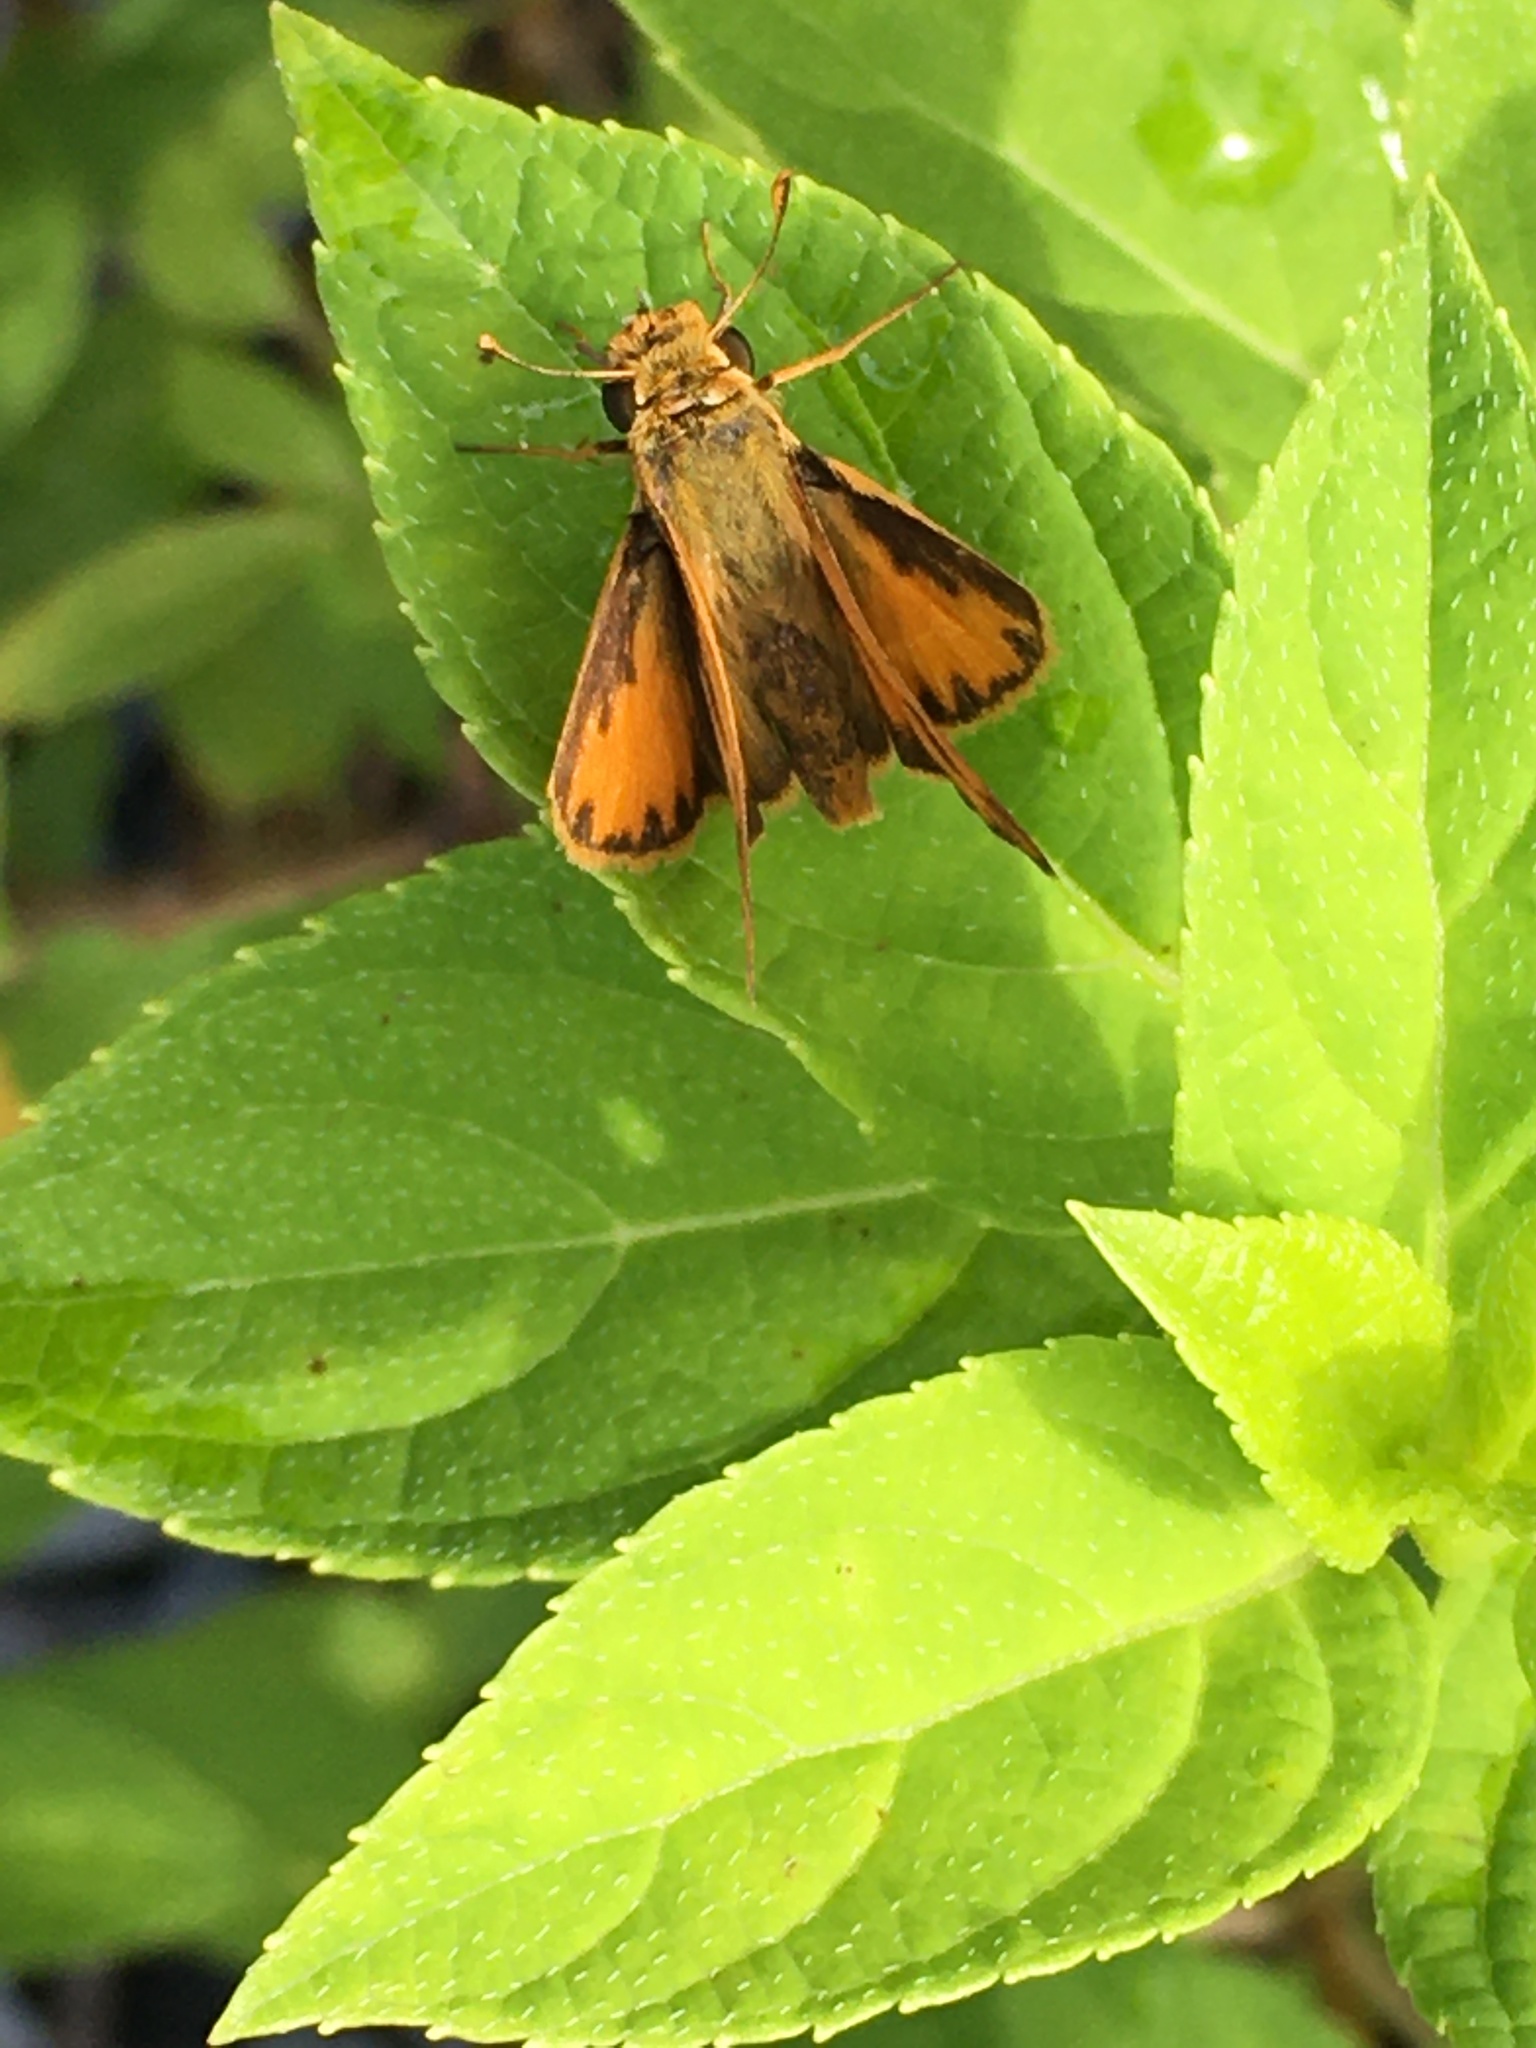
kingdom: Animalia
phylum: Arthropoda
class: Insecta
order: Lepidoptera
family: Hesperiidae
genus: Hylephila
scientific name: Hylephila phyleus
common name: Fiery skipper
